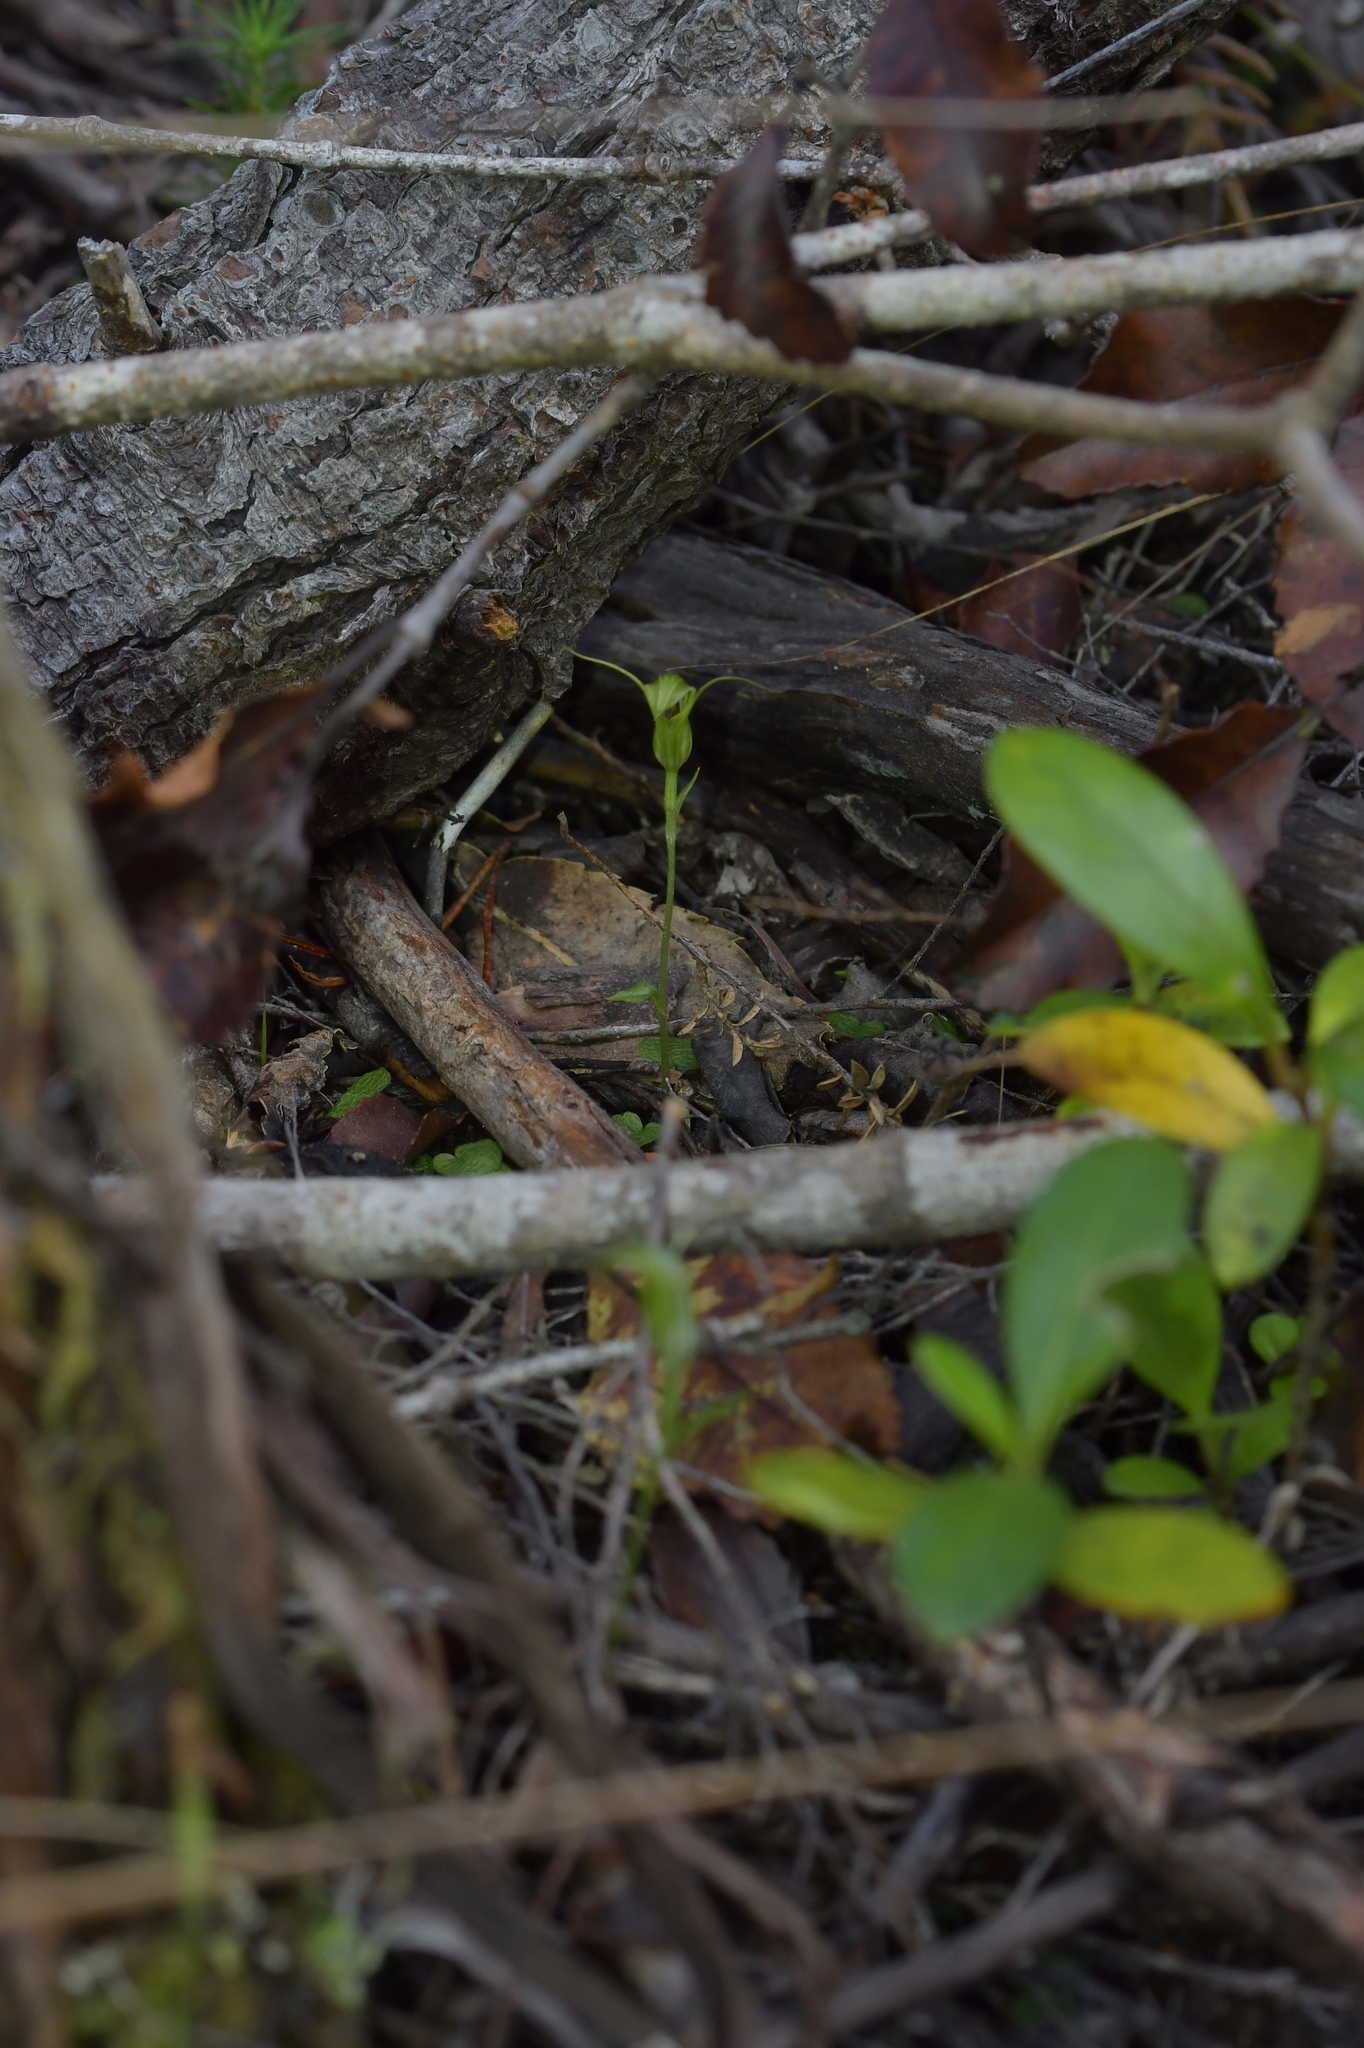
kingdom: Plantae
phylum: Tracheophyta
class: Liliopsida
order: Asparagales
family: Orchidaceae
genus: Pterostylis
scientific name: Pterostylis trullifolia
